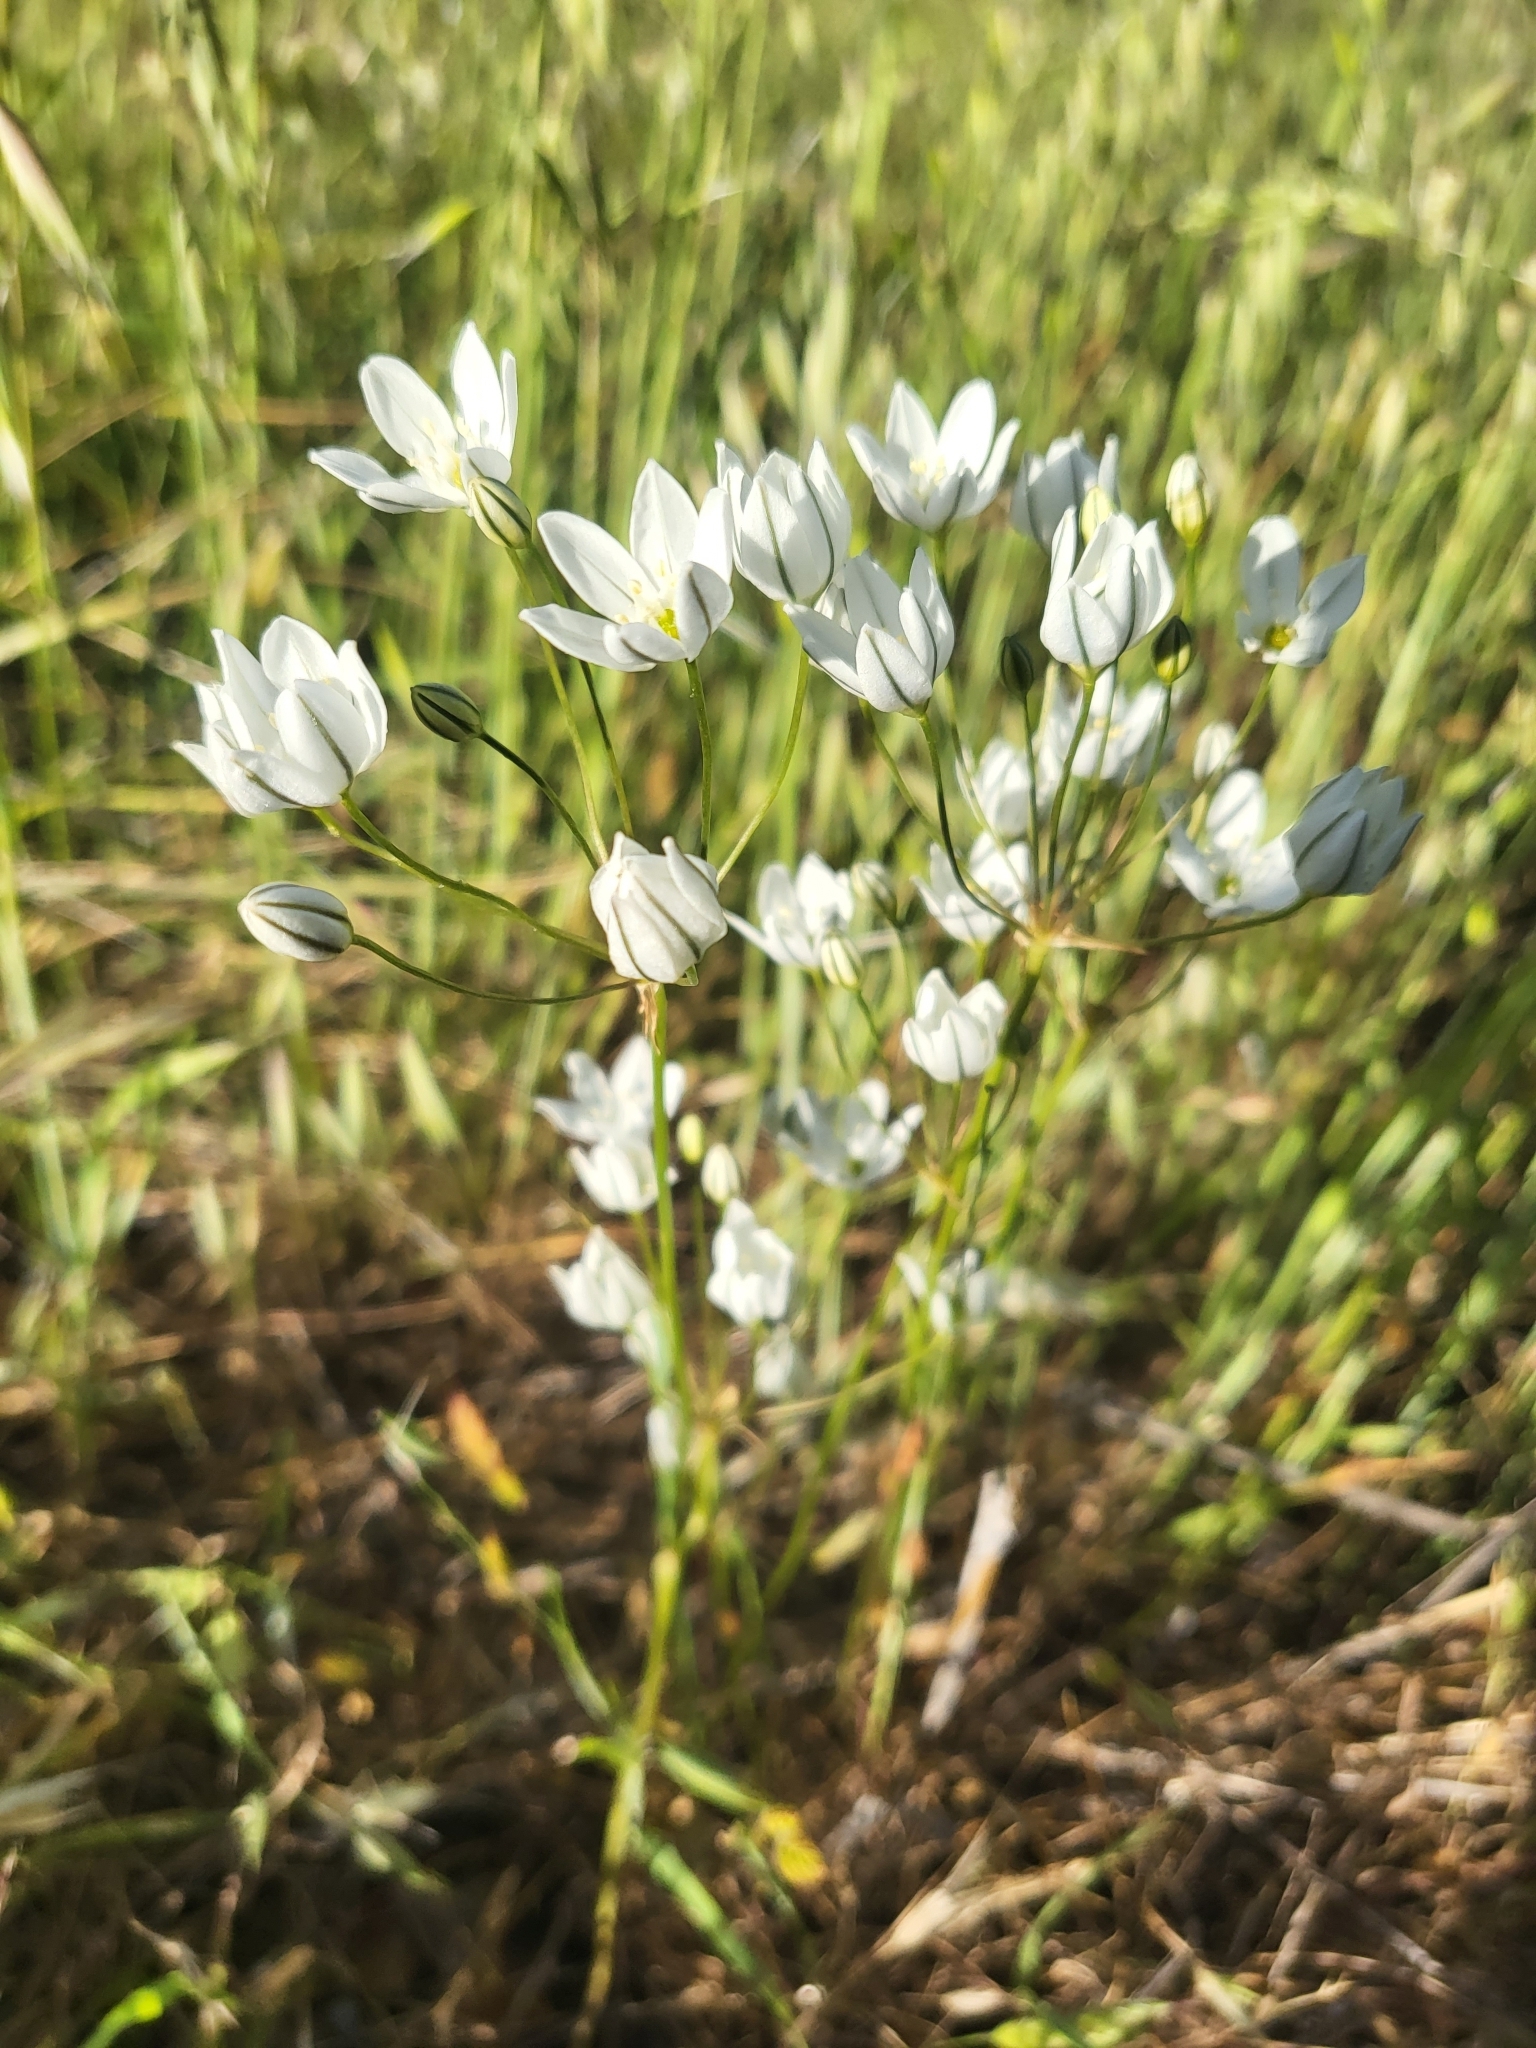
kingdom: Plantae
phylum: Tracheophyta
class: Liliopsida
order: Asparagales
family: Asparagaceae
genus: Triteleia
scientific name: Triteleia hyacinthina
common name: White brodiaea
